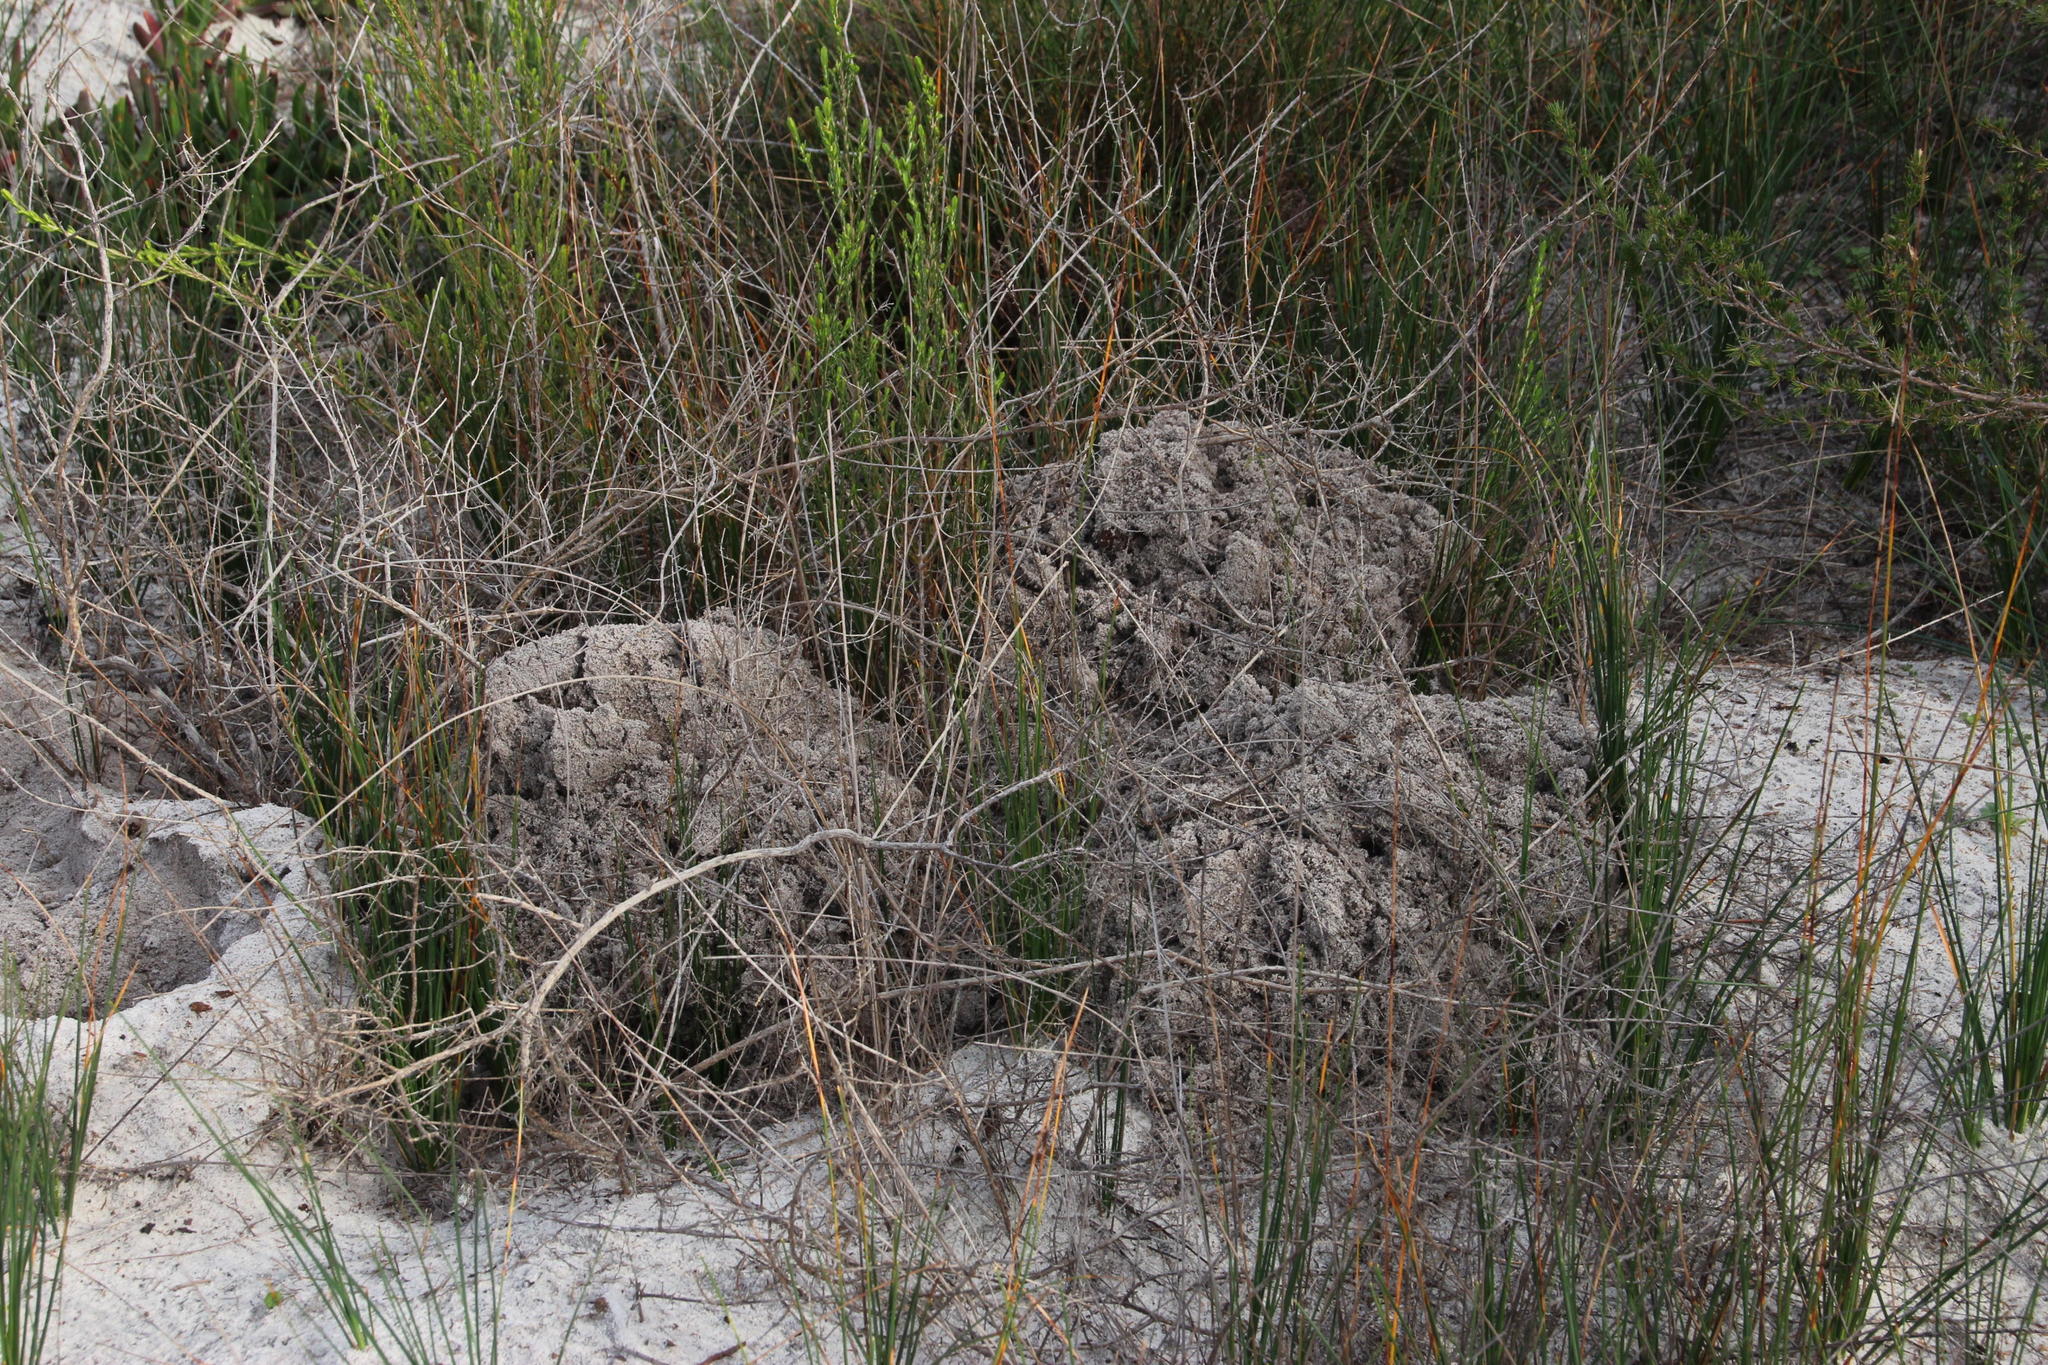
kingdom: Animalia
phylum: Chordata
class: Mammalia
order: Rodentia
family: Bathyergidae
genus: Bathyergus
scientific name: Bathyergus suillus
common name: Cape dune mole rat
